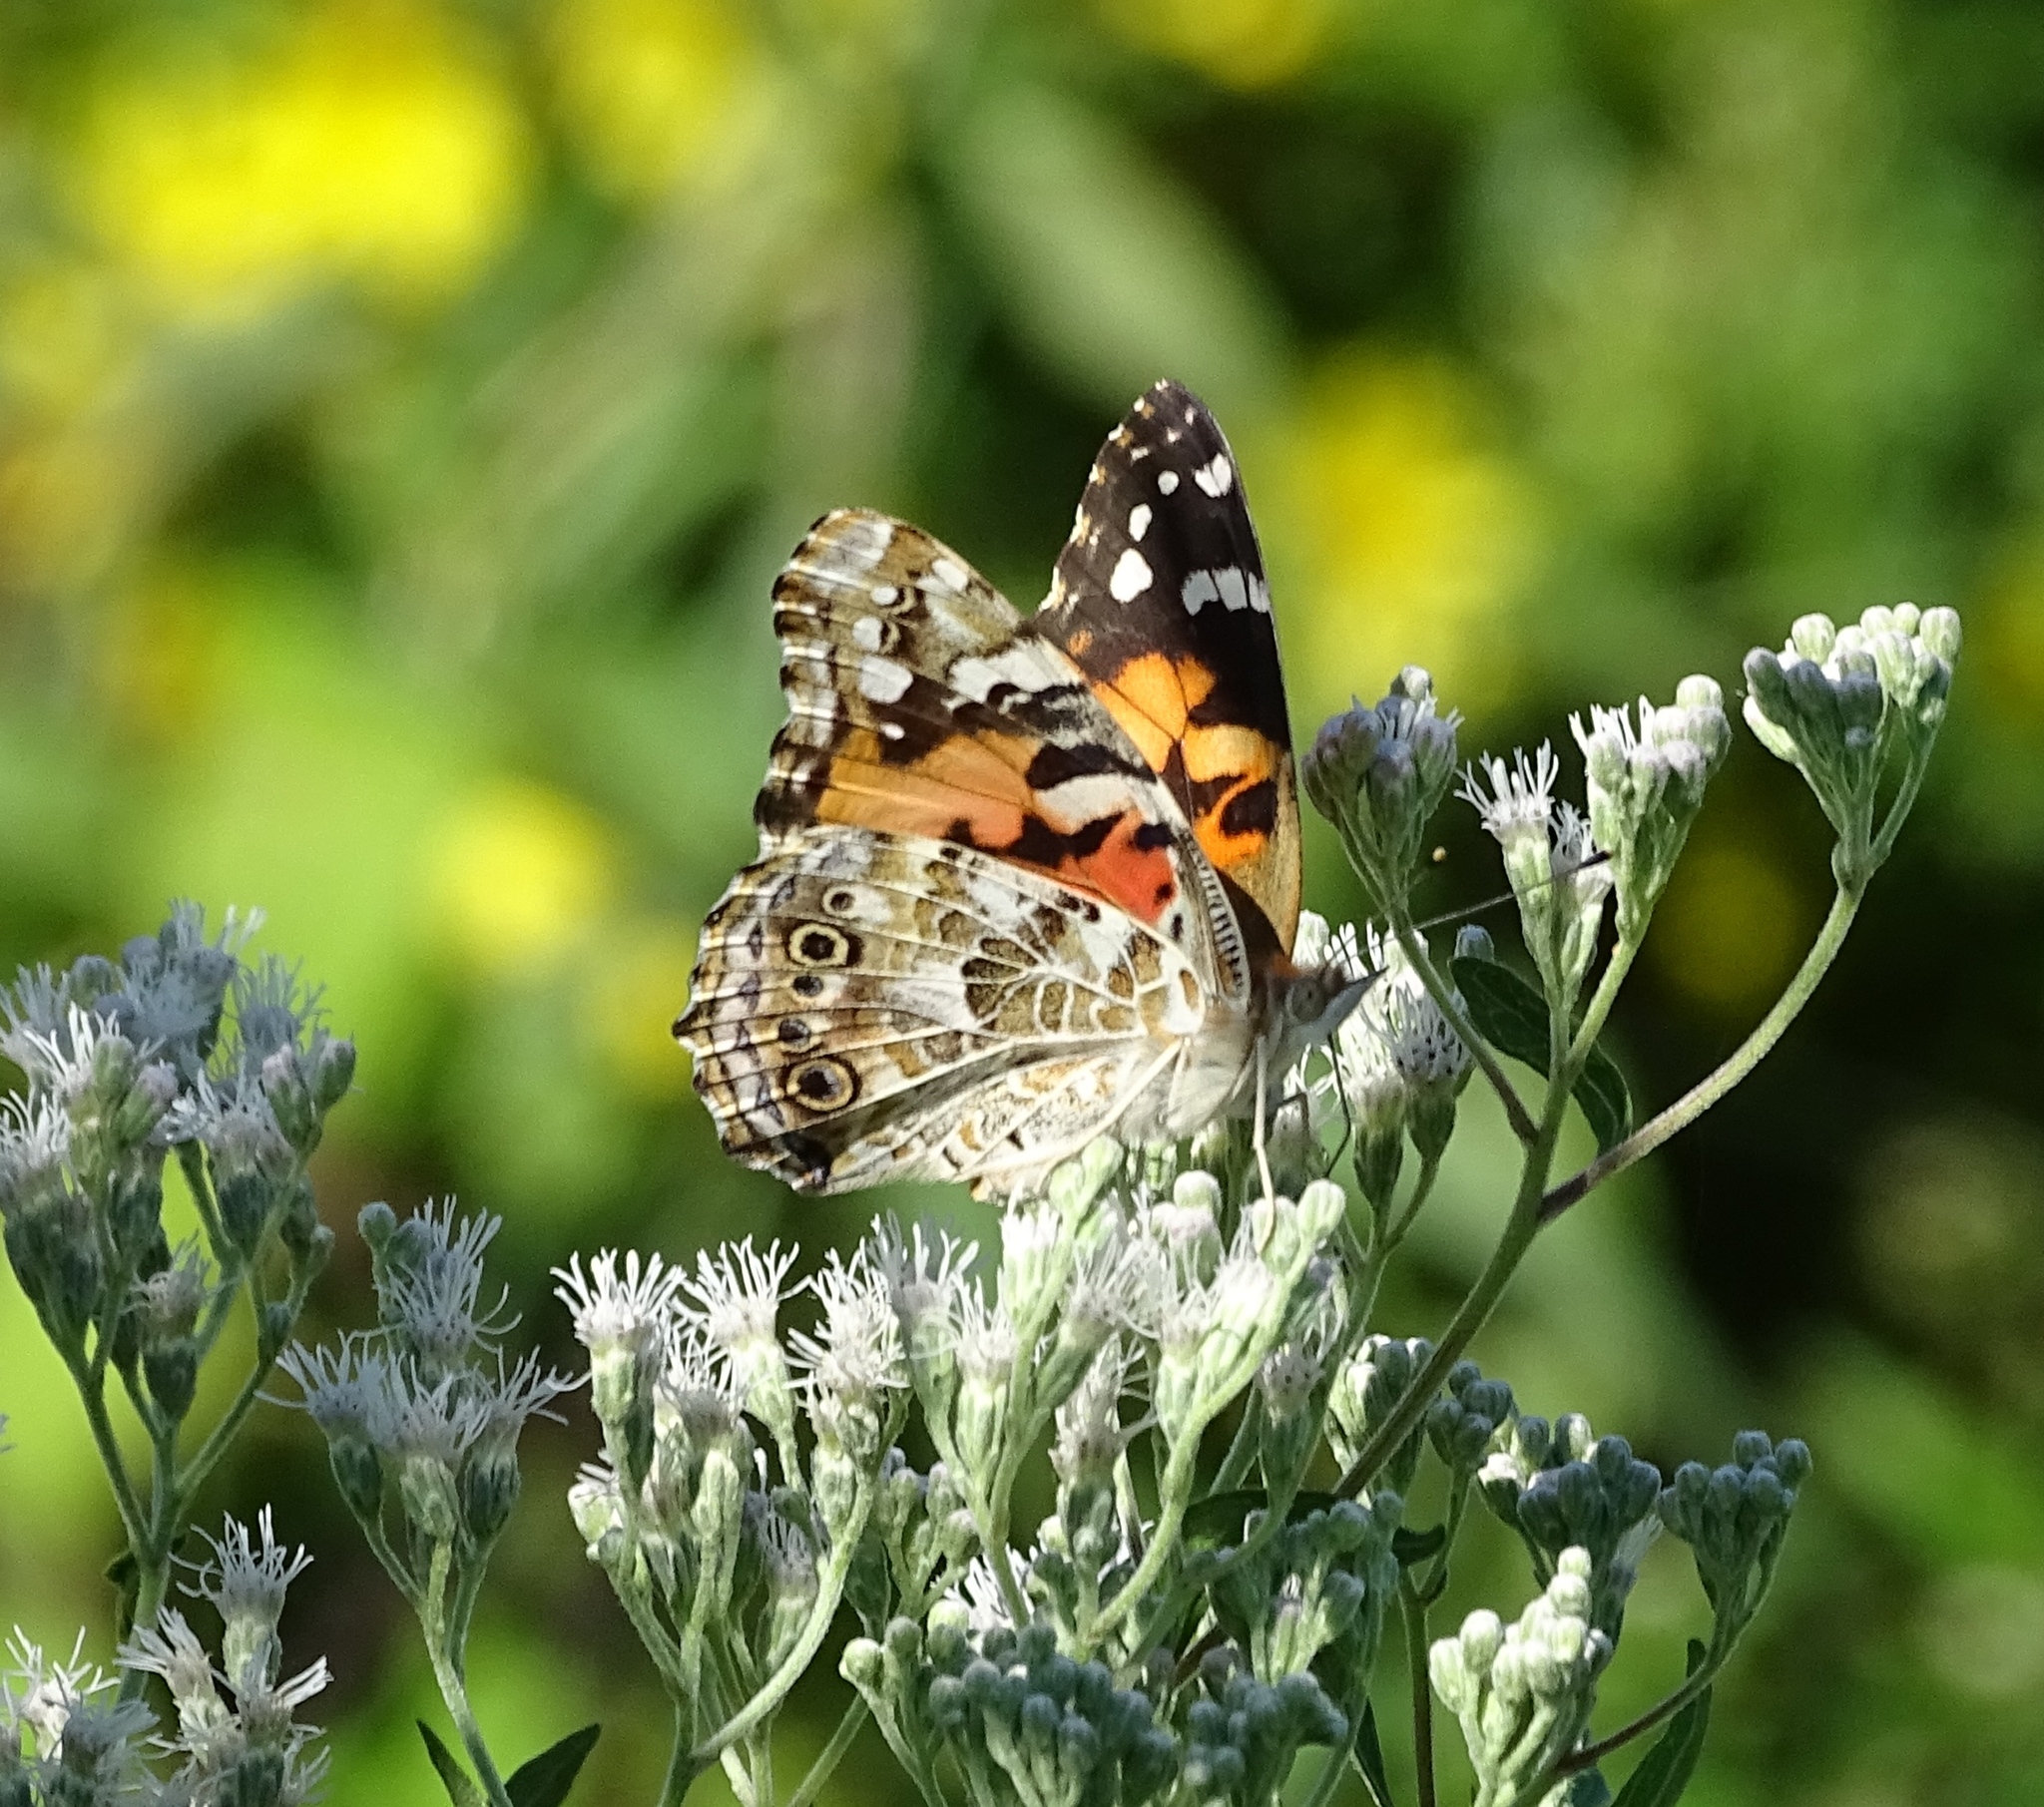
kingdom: Animalia
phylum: Arthropoda
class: Insecta
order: Lepidoptera
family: Nymphalidae
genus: Vanessa
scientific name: Vanessa cardui
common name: Painted lady
